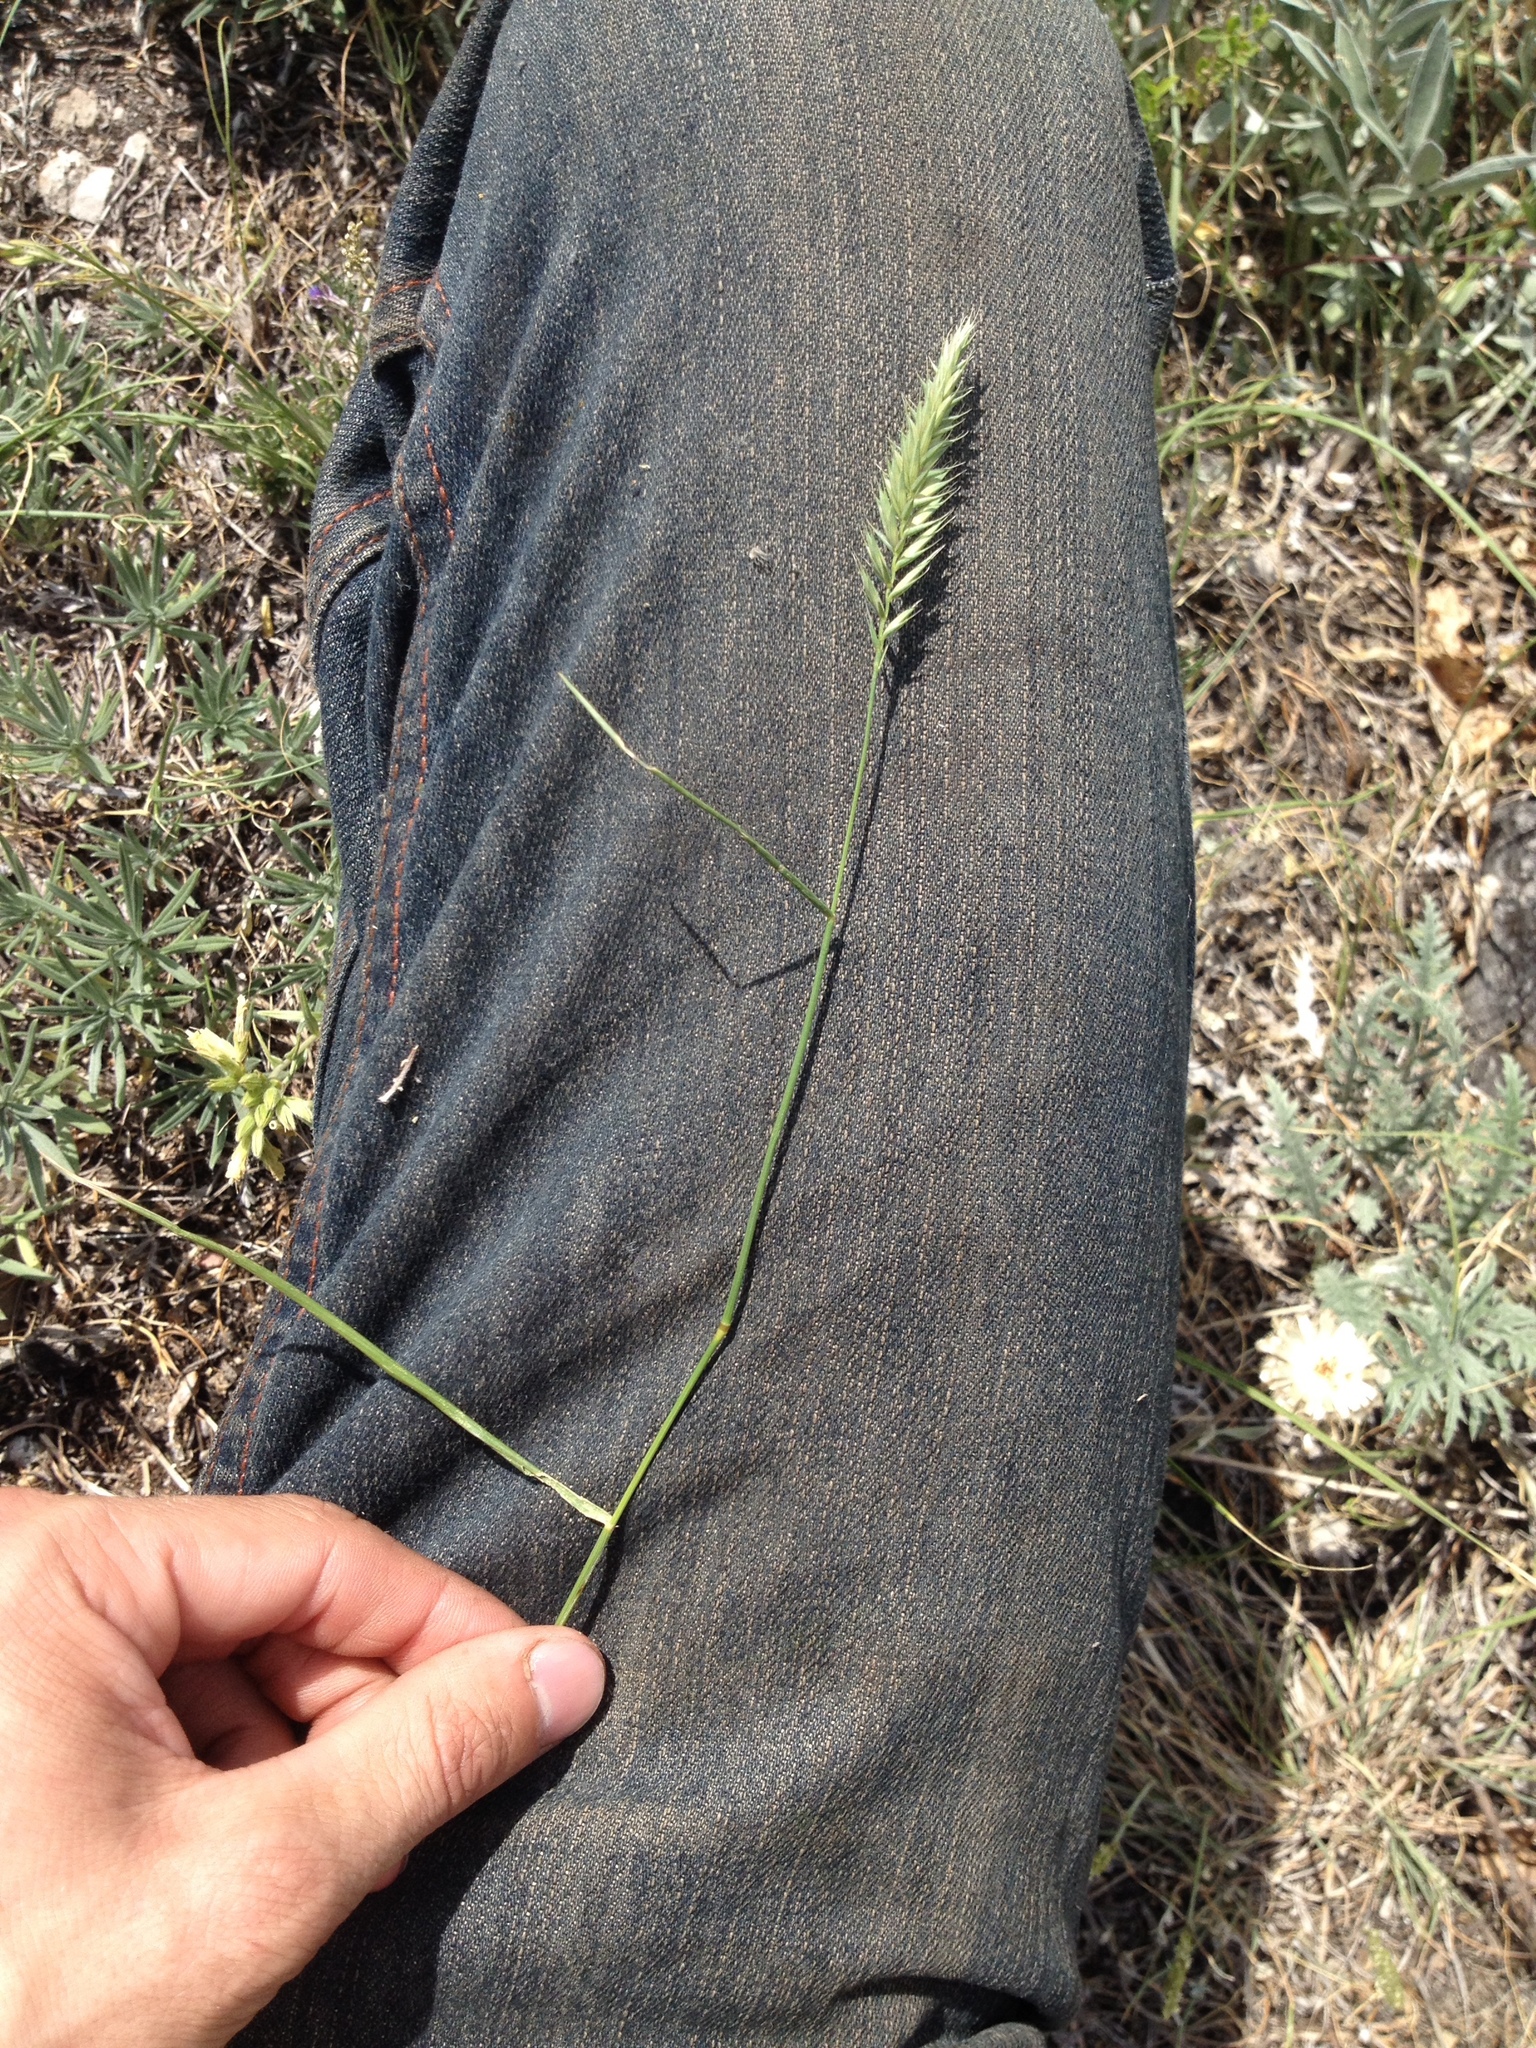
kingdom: Plantae
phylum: Tracheophyta
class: Liliopsida
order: Poales
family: Poaceae
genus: Agropyron
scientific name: Agropyron cristatum
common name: Crested wheatgrass
